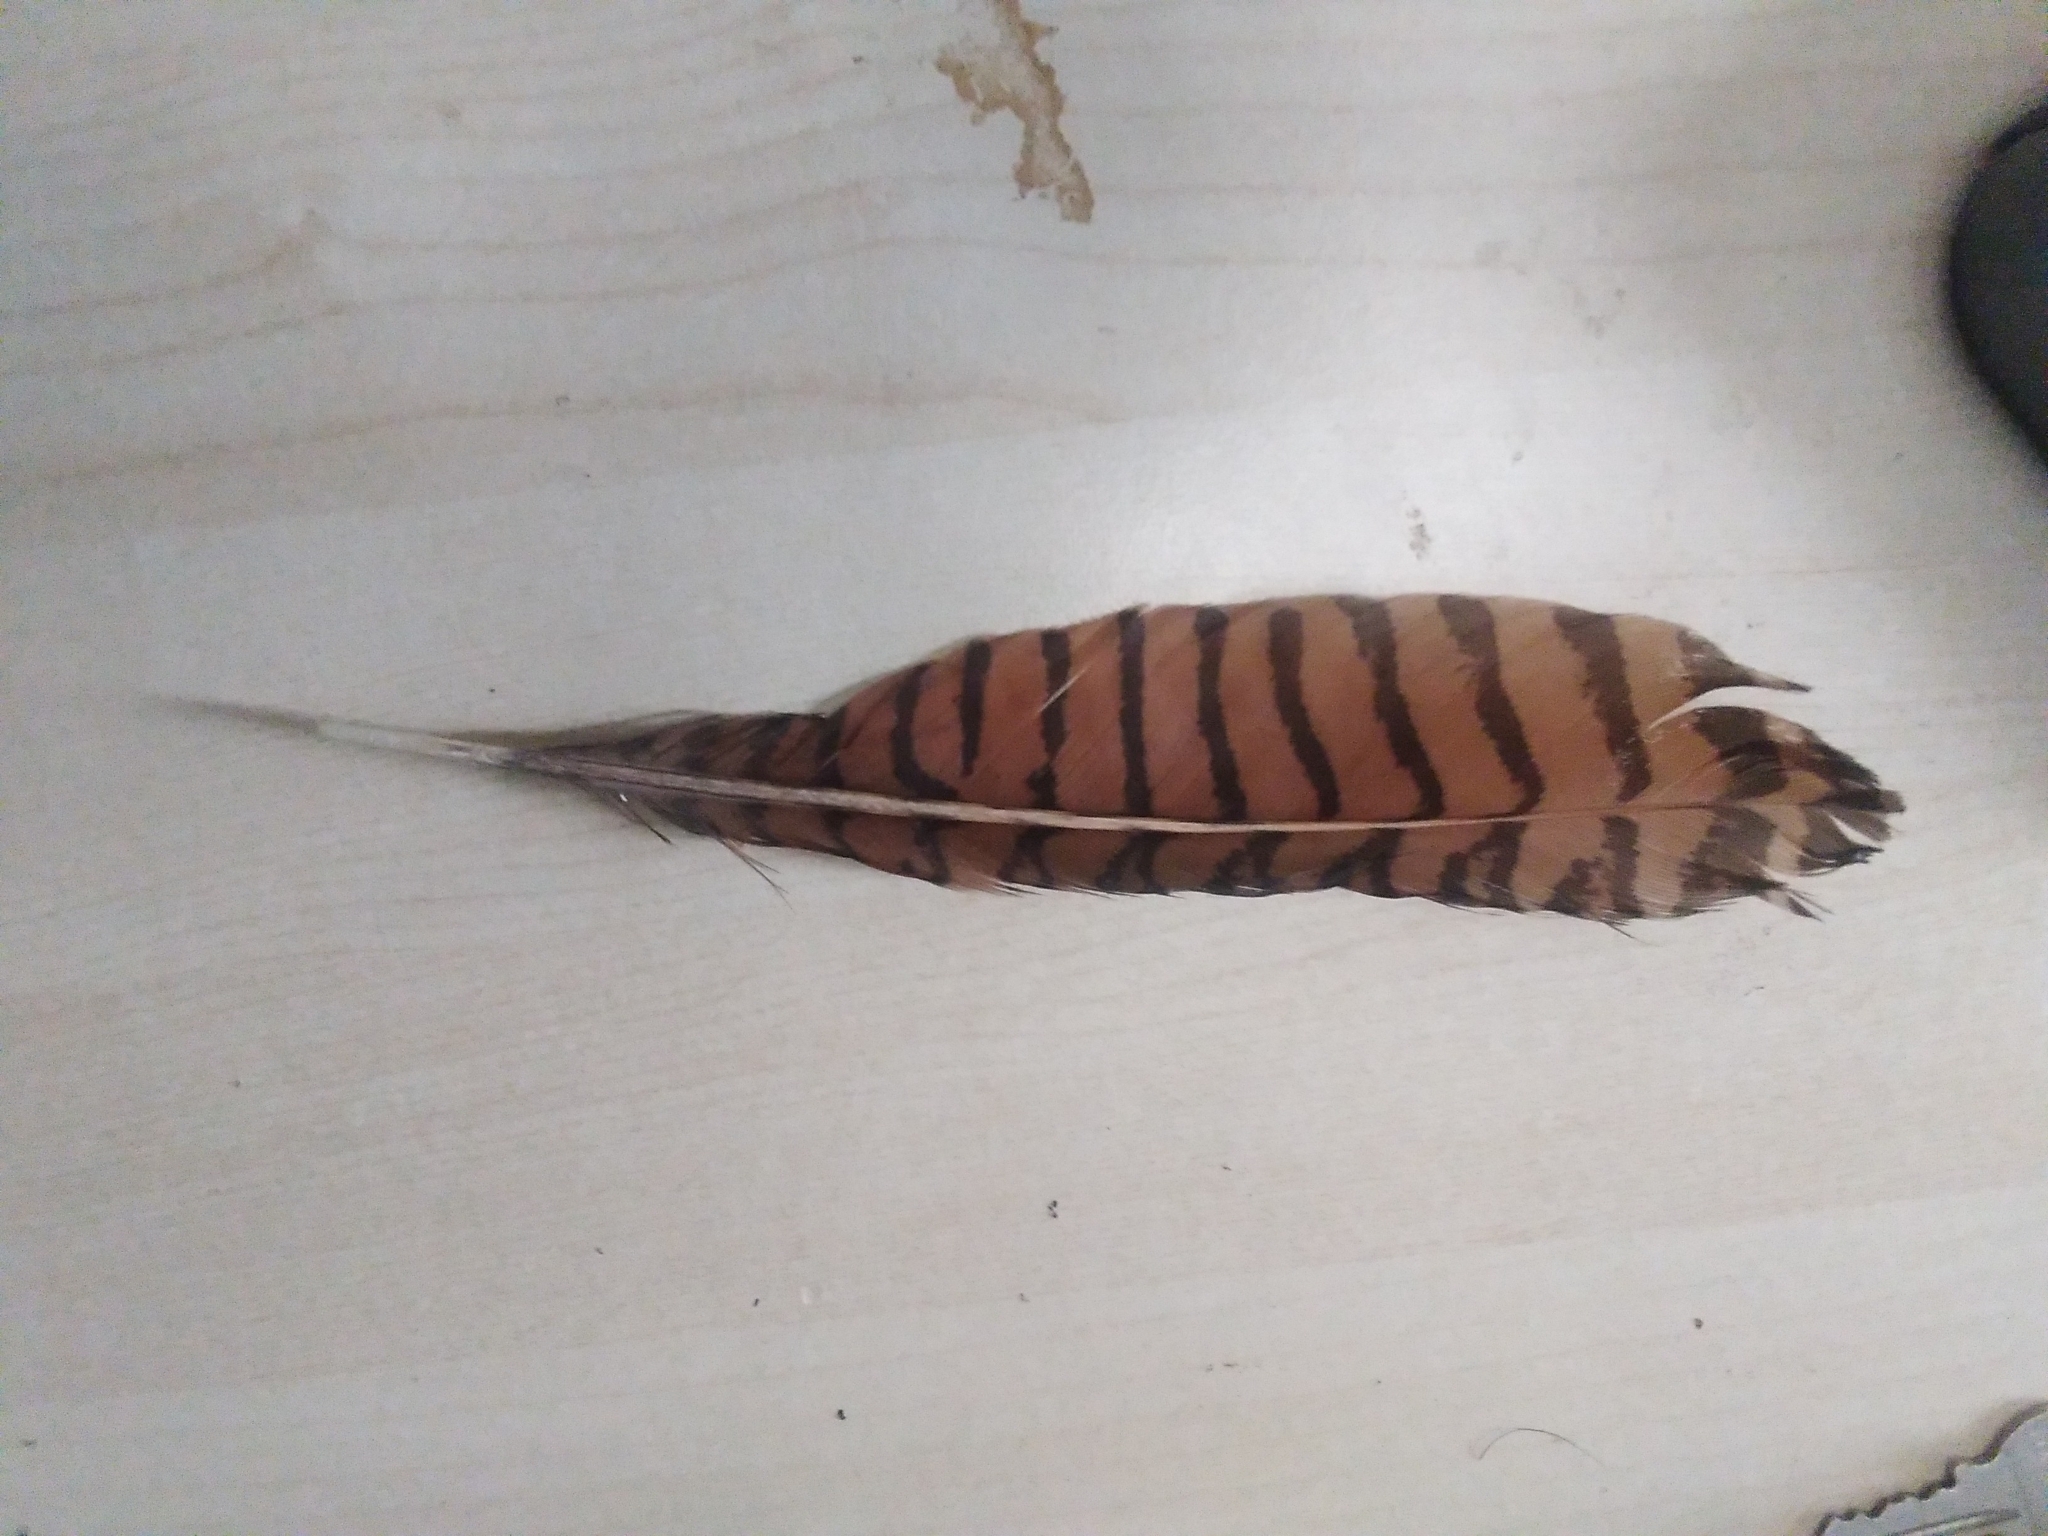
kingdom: Animalia
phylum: Chordata
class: Aves
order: Cuculiformes
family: Cuculidae
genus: Centropus
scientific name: Centropus phasianinus
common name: Pheasant coucal
